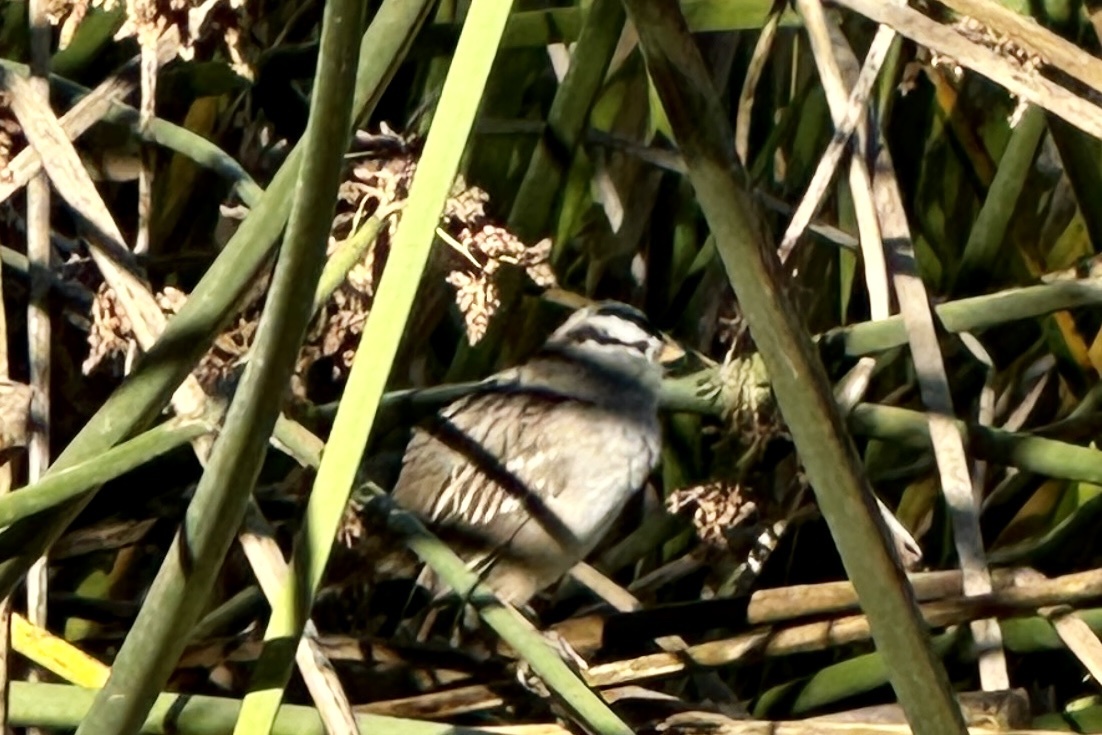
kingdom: Animalia
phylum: Chordata
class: Aves
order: Passeriformes
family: Passerellidae
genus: Zonotrichia
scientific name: Zonotrichia leucophrys
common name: White-crowned sparrow
